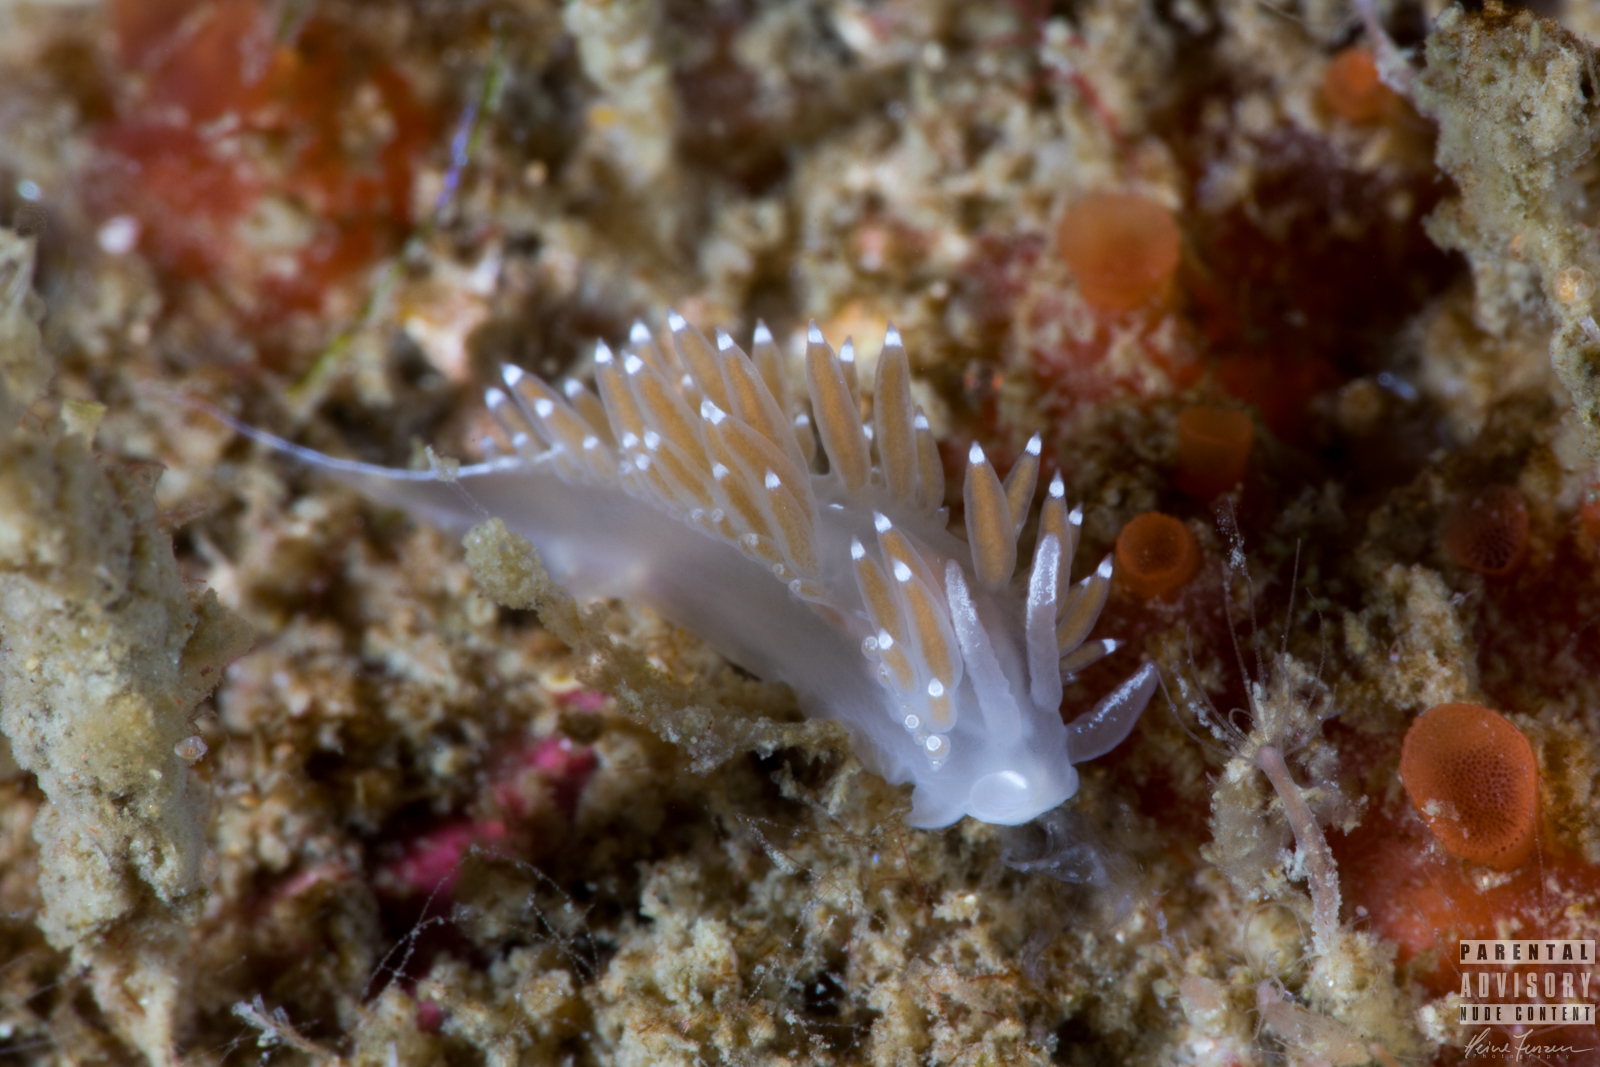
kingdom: Animalia
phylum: Mollusca
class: Gastropoda
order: Nudibranchia
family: Coryphellidae
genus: Coryphella
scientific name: Coryphella verrucosa
